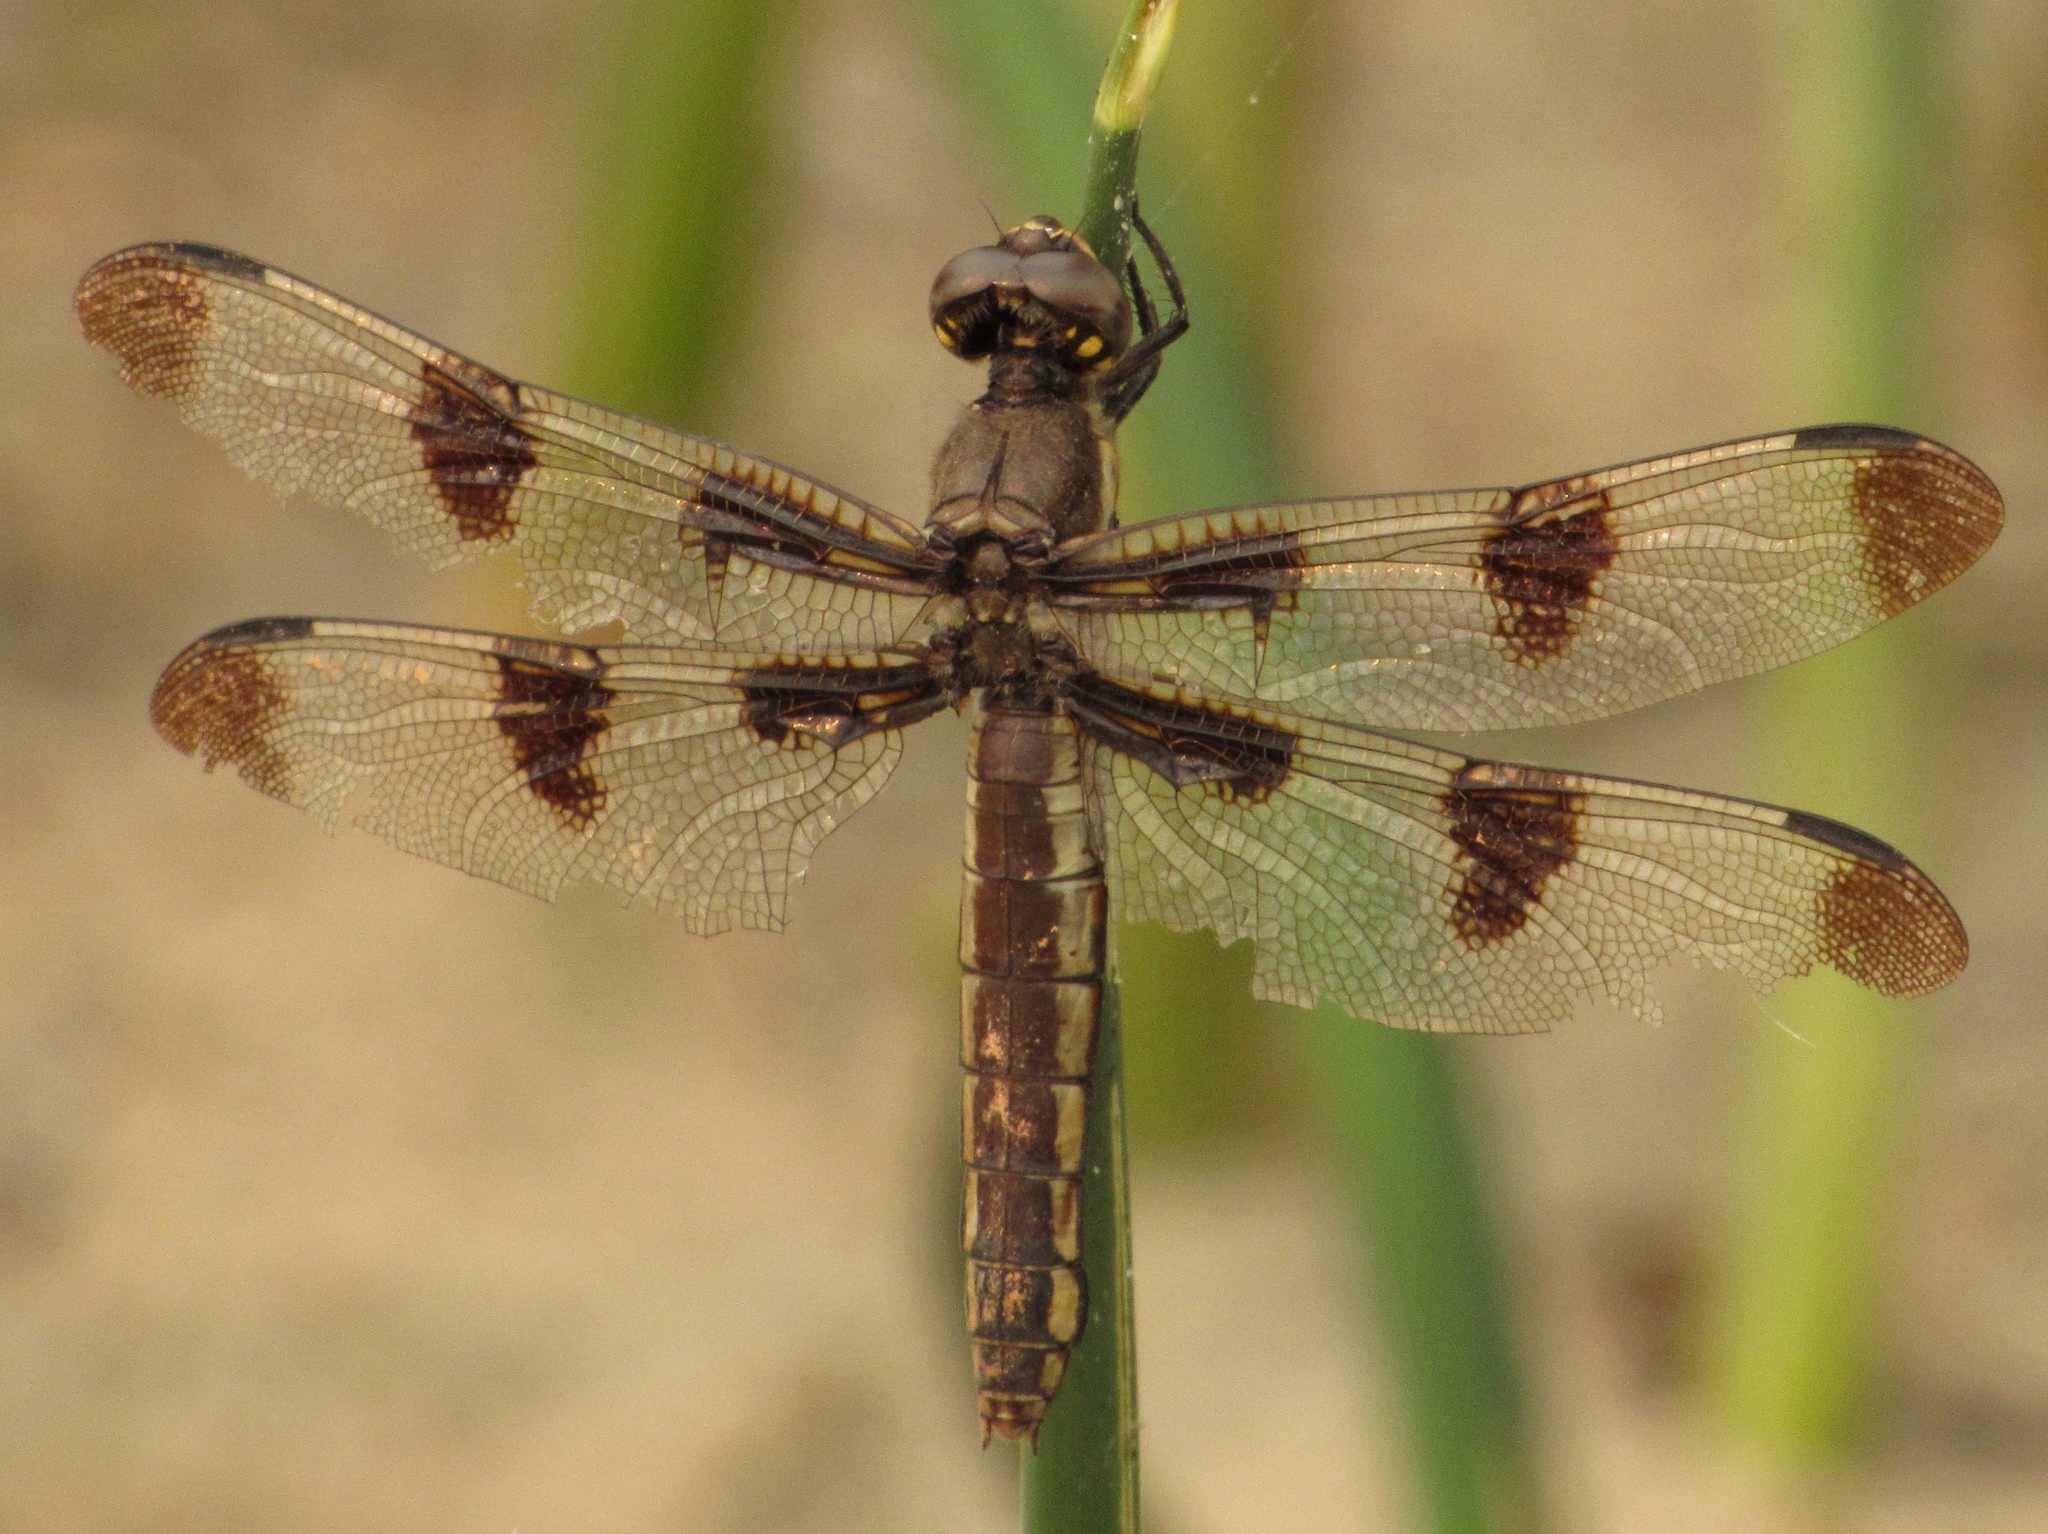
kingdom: Animalia
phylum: Arthropoda
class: Insecta
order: Odonata
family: Libellulidae
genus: Plathemis
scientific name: Plathemis lydia
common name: Common whitetail
